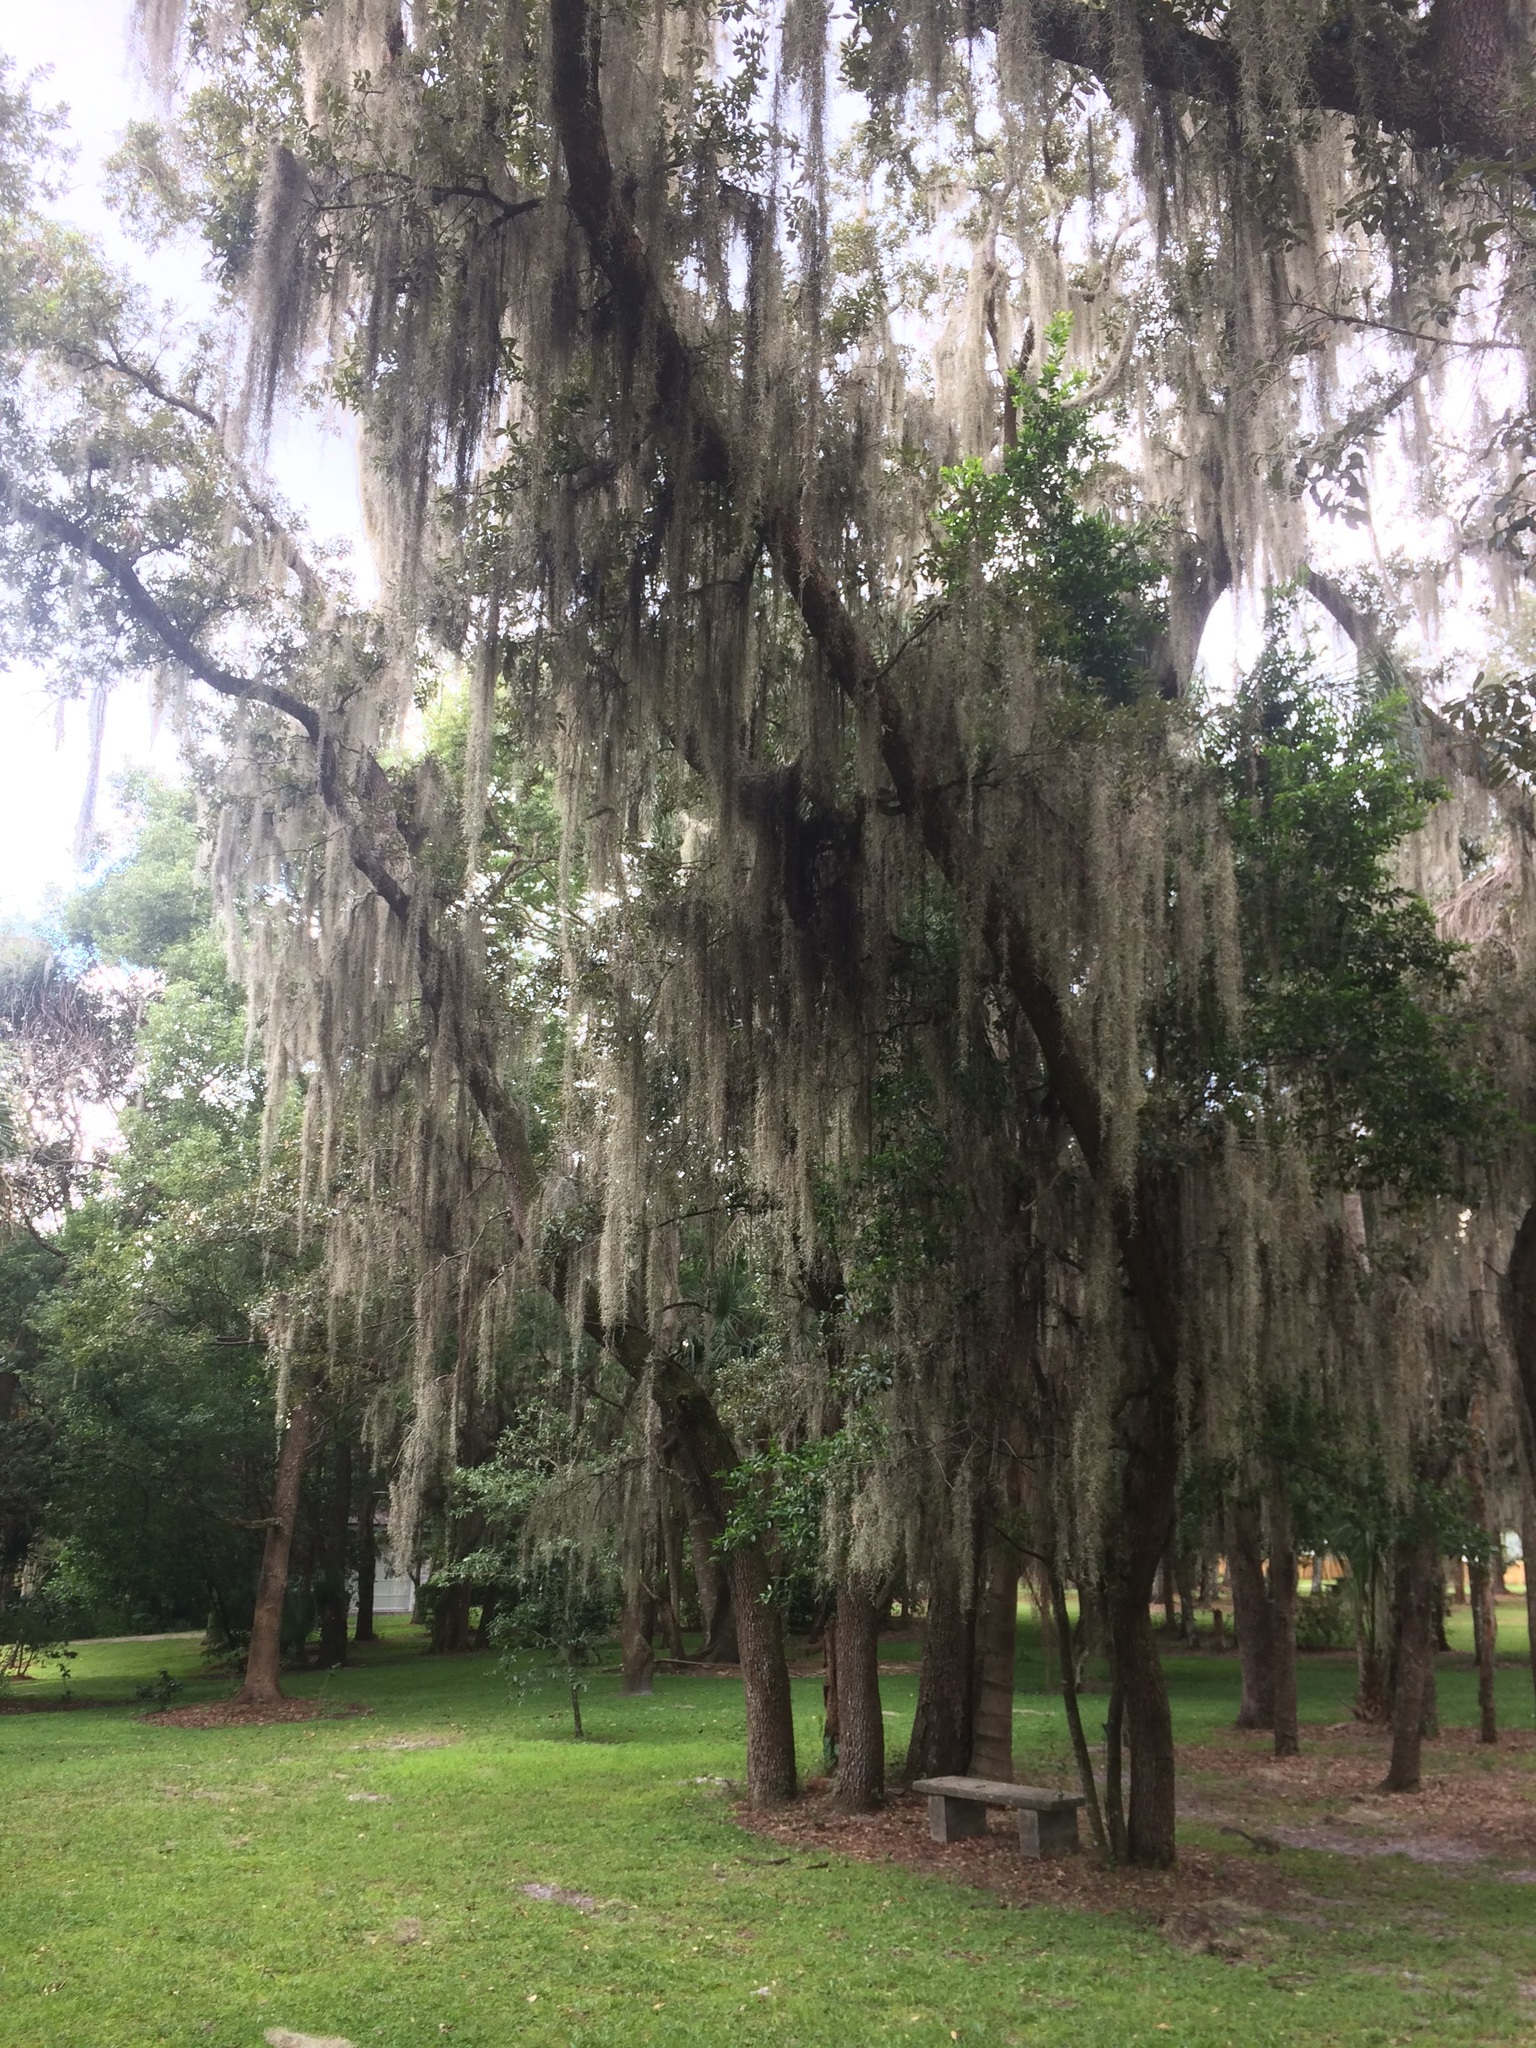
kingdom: Plantae
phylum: Tracheophyta
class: Liliopsida
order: Poales
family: Bromeliaceae
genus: Tillandsia
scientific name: Tillandsia usneoides
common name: Spanish moss
